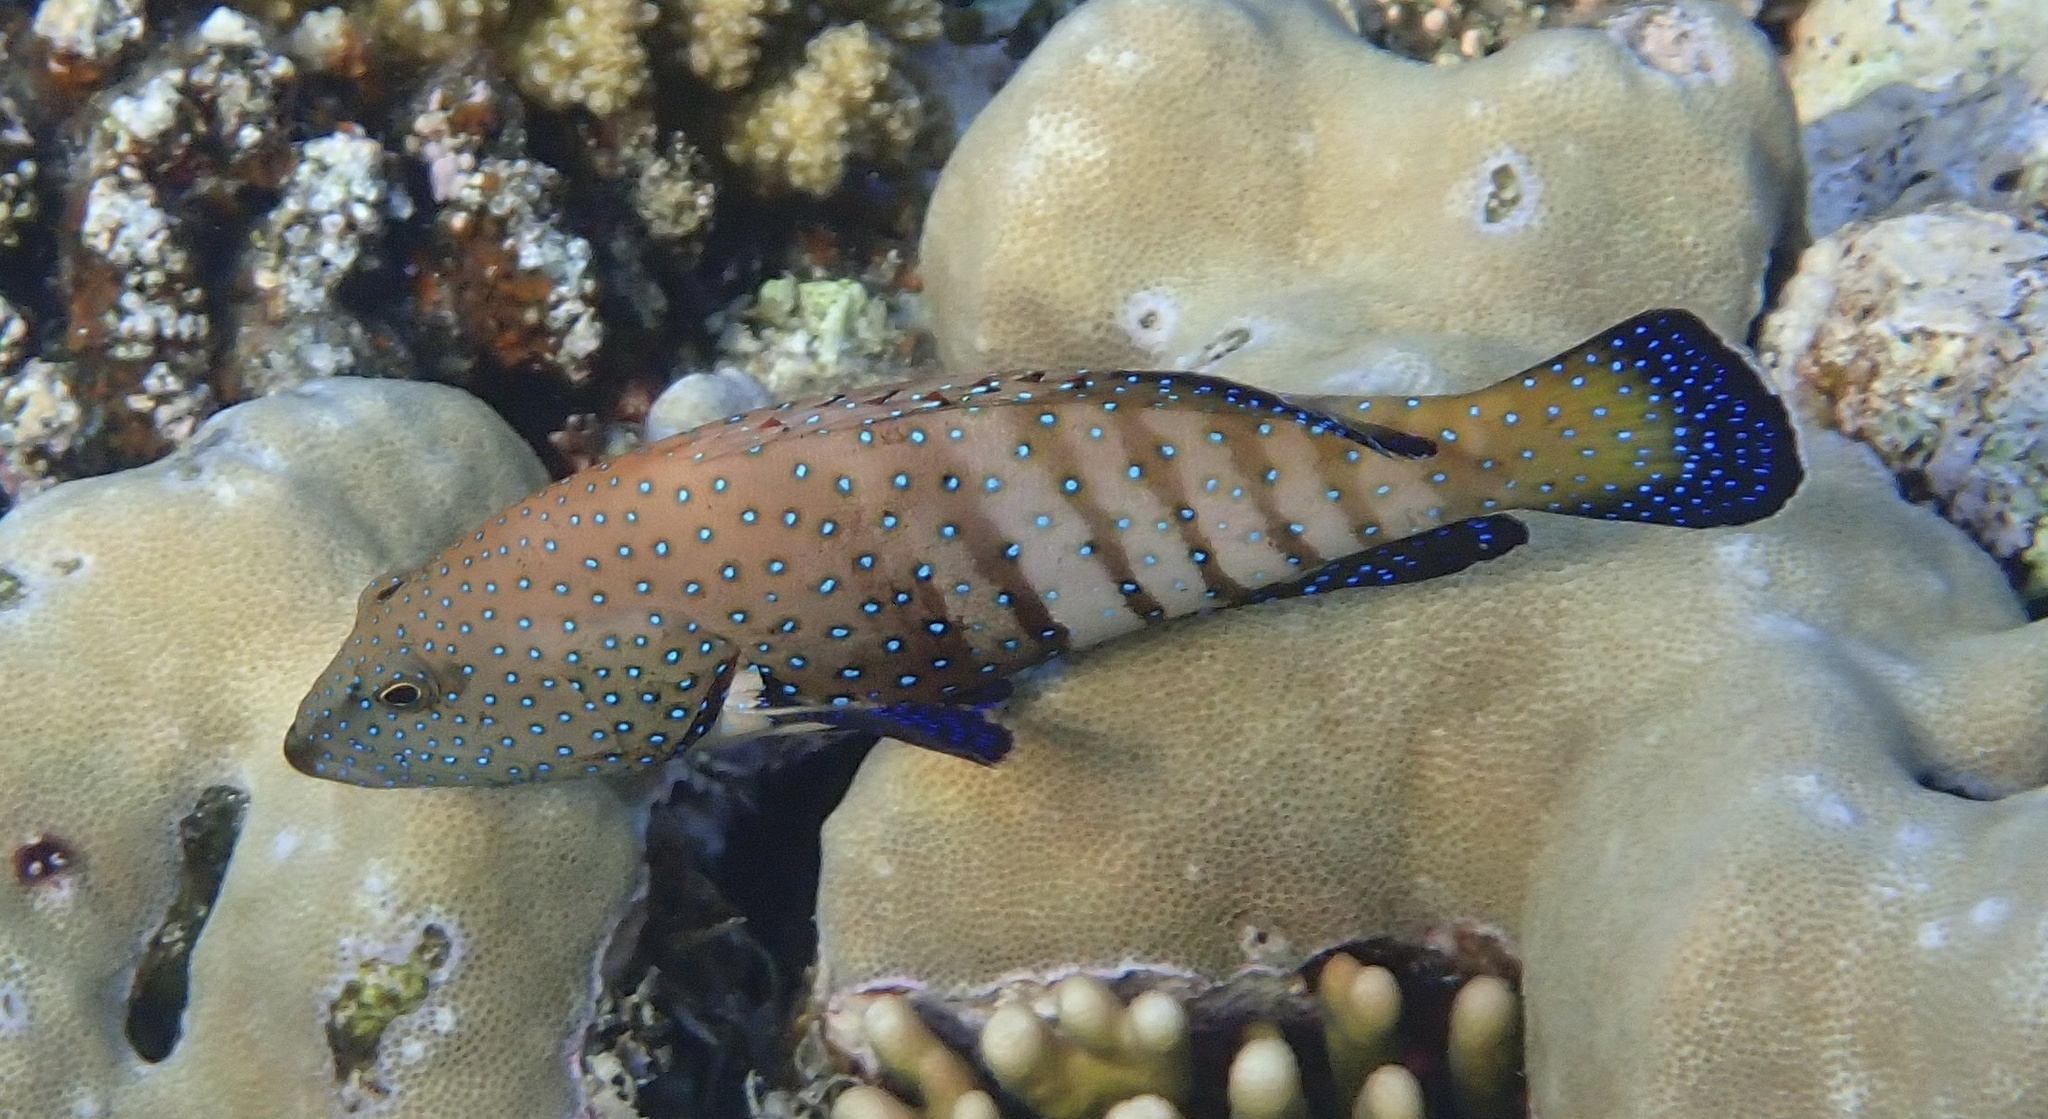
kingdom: Animalia
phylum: Chordata
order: Perciformes
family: Serranidae
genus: Cephalopholis
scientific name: Cephalopholis argus
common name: Peacock grouper
